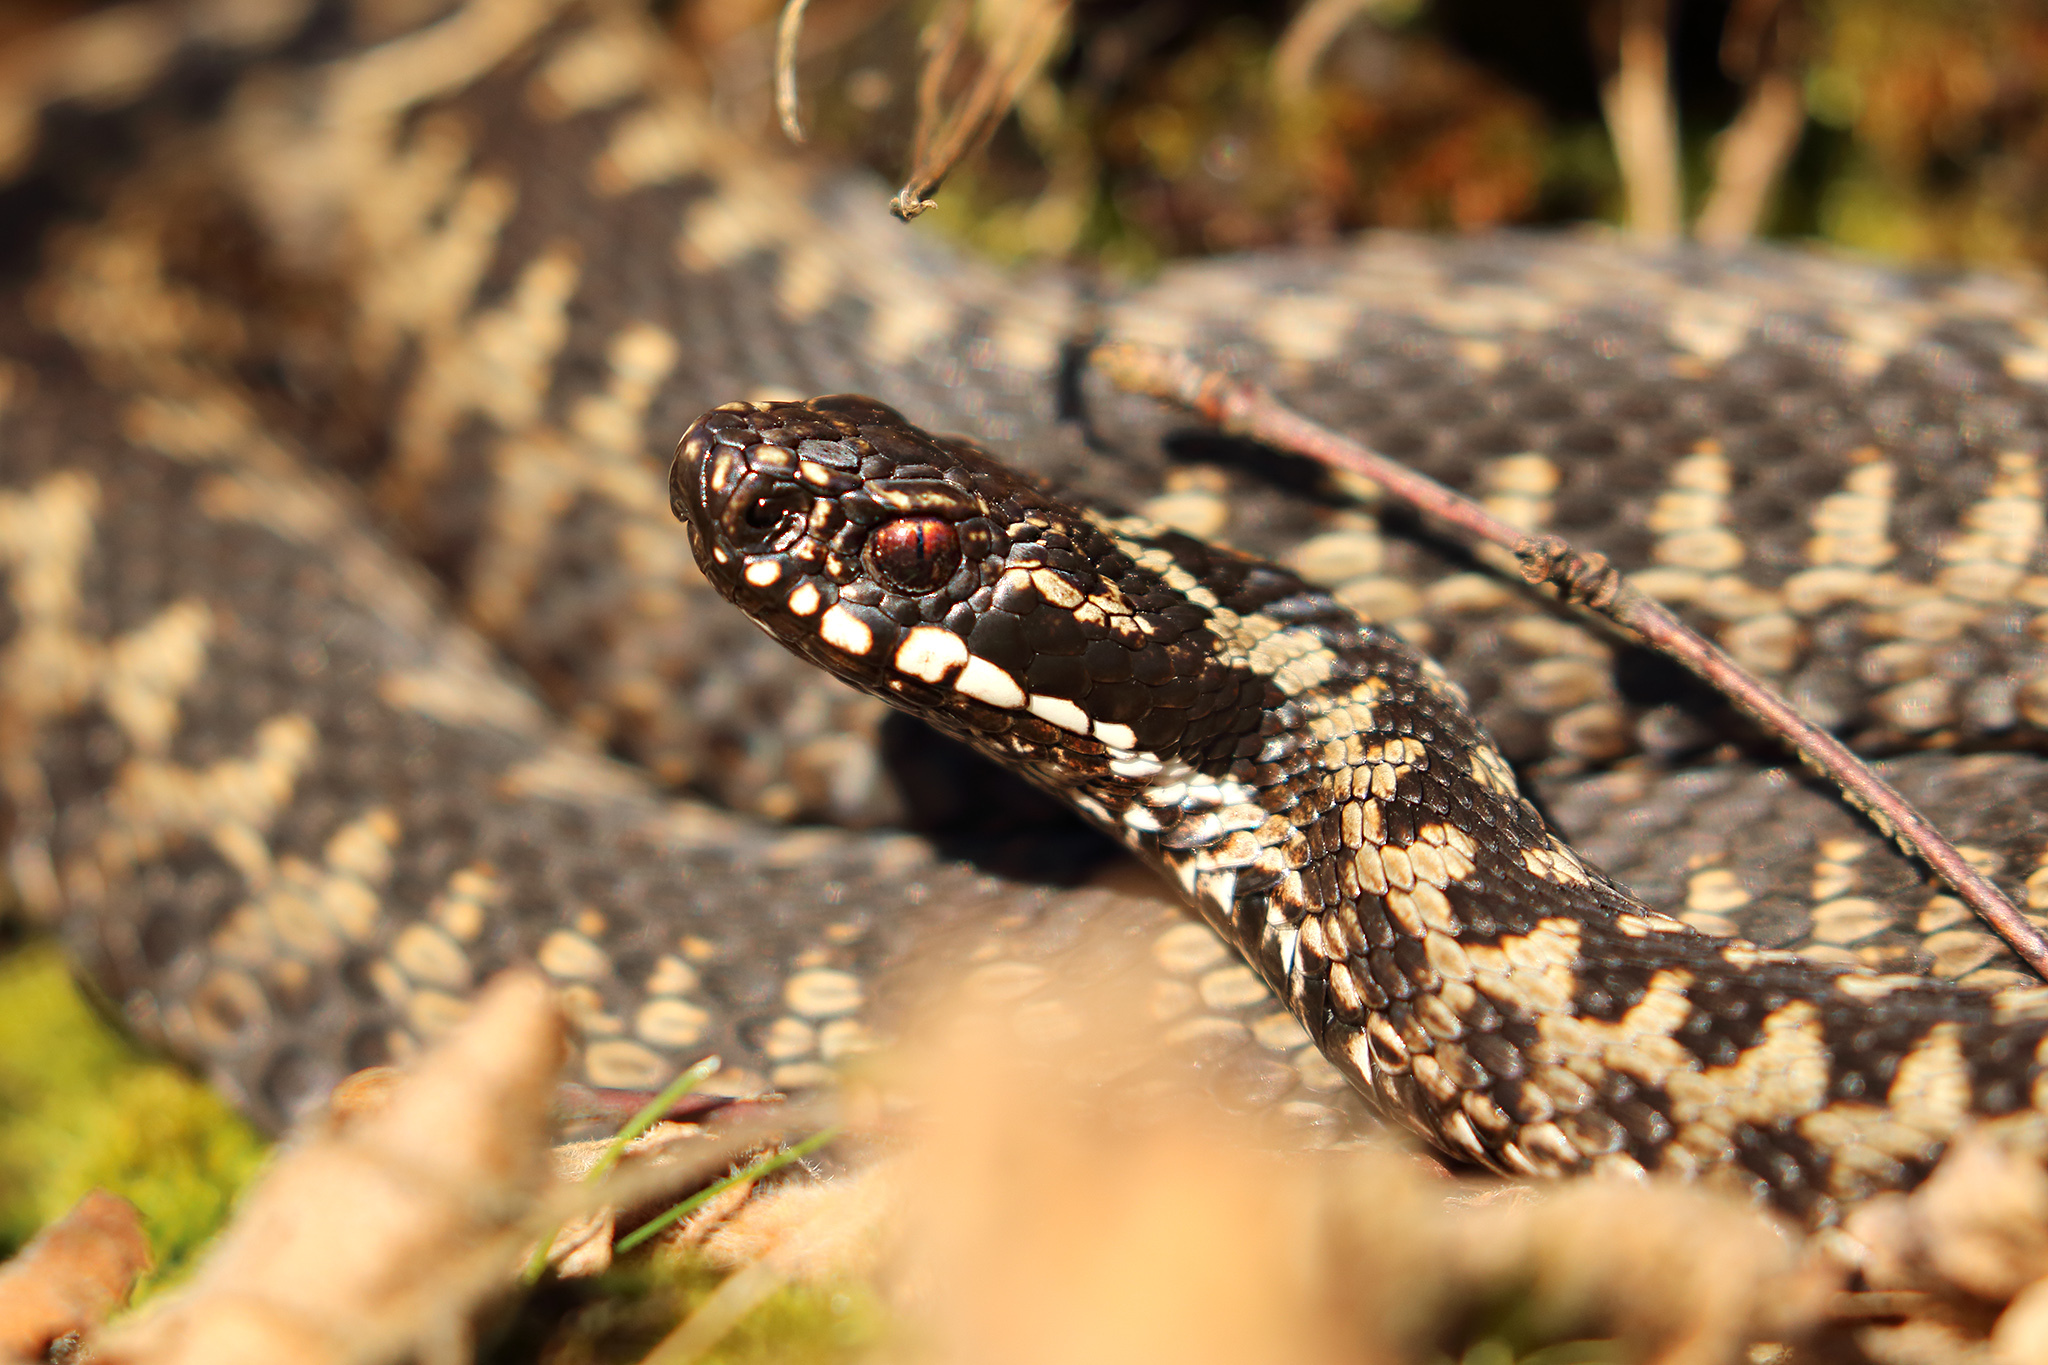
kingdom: Animalia
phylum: Chordata
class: Squamata
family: Viperidae
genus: Vipera
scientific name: Vipera berus
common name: Adder
